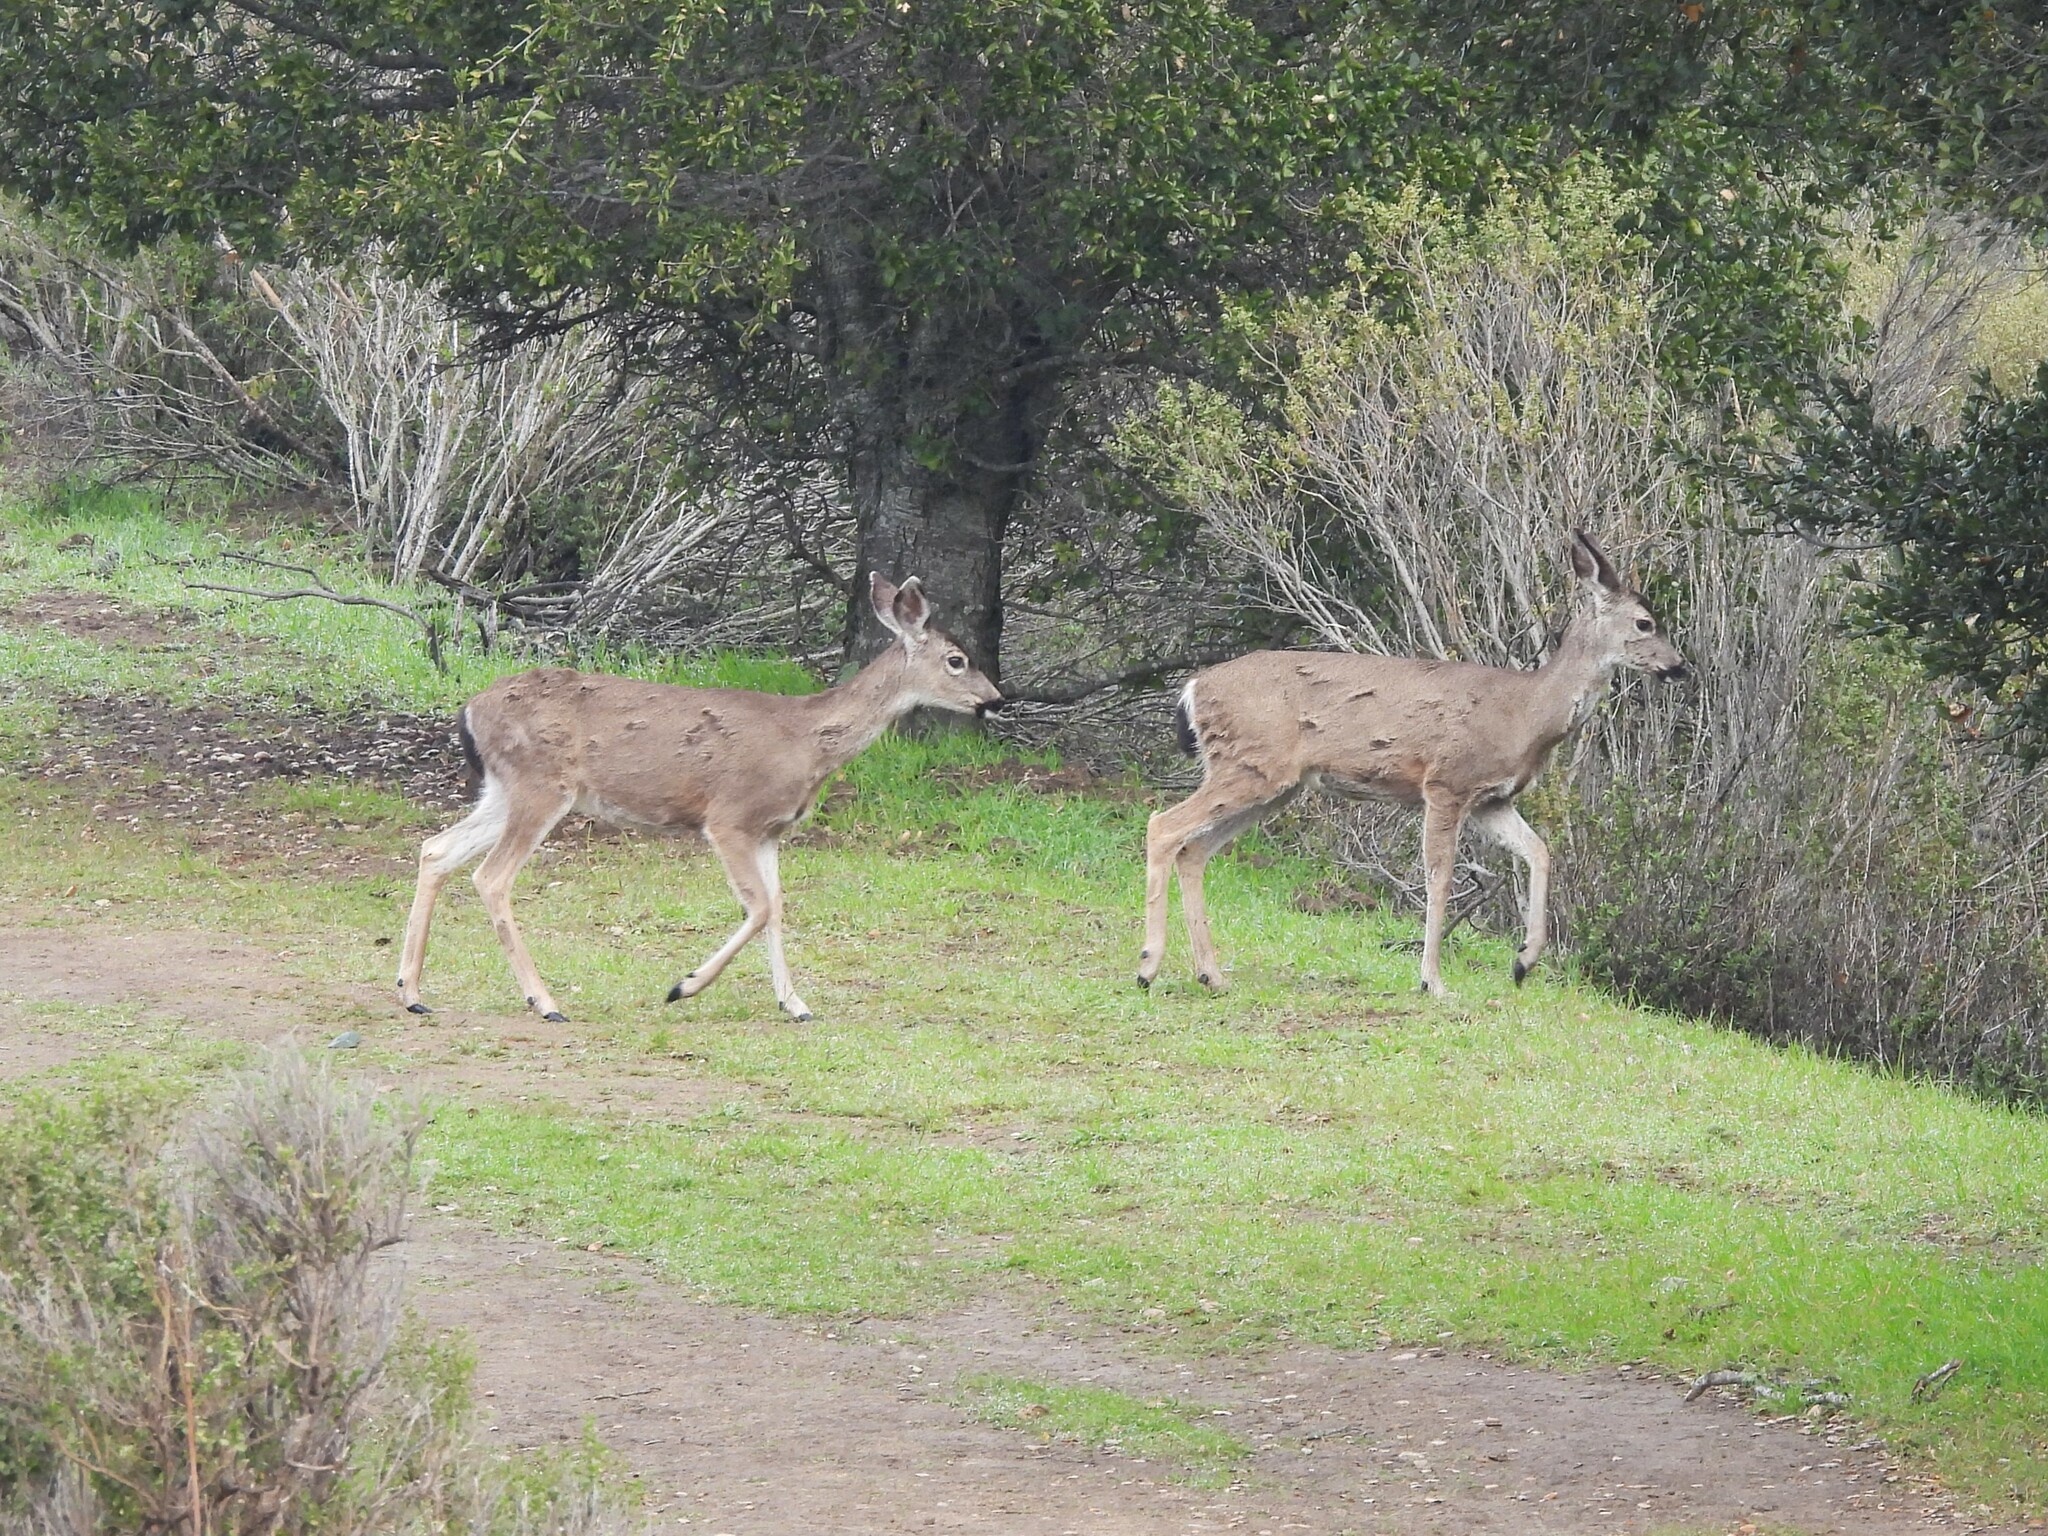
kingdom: Animalia
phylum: Chordata
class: Mammalia
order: Artiodactyla
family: Cervidae
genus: Odocoileus
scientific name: Odocoileus hemionus
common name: Mule deer
